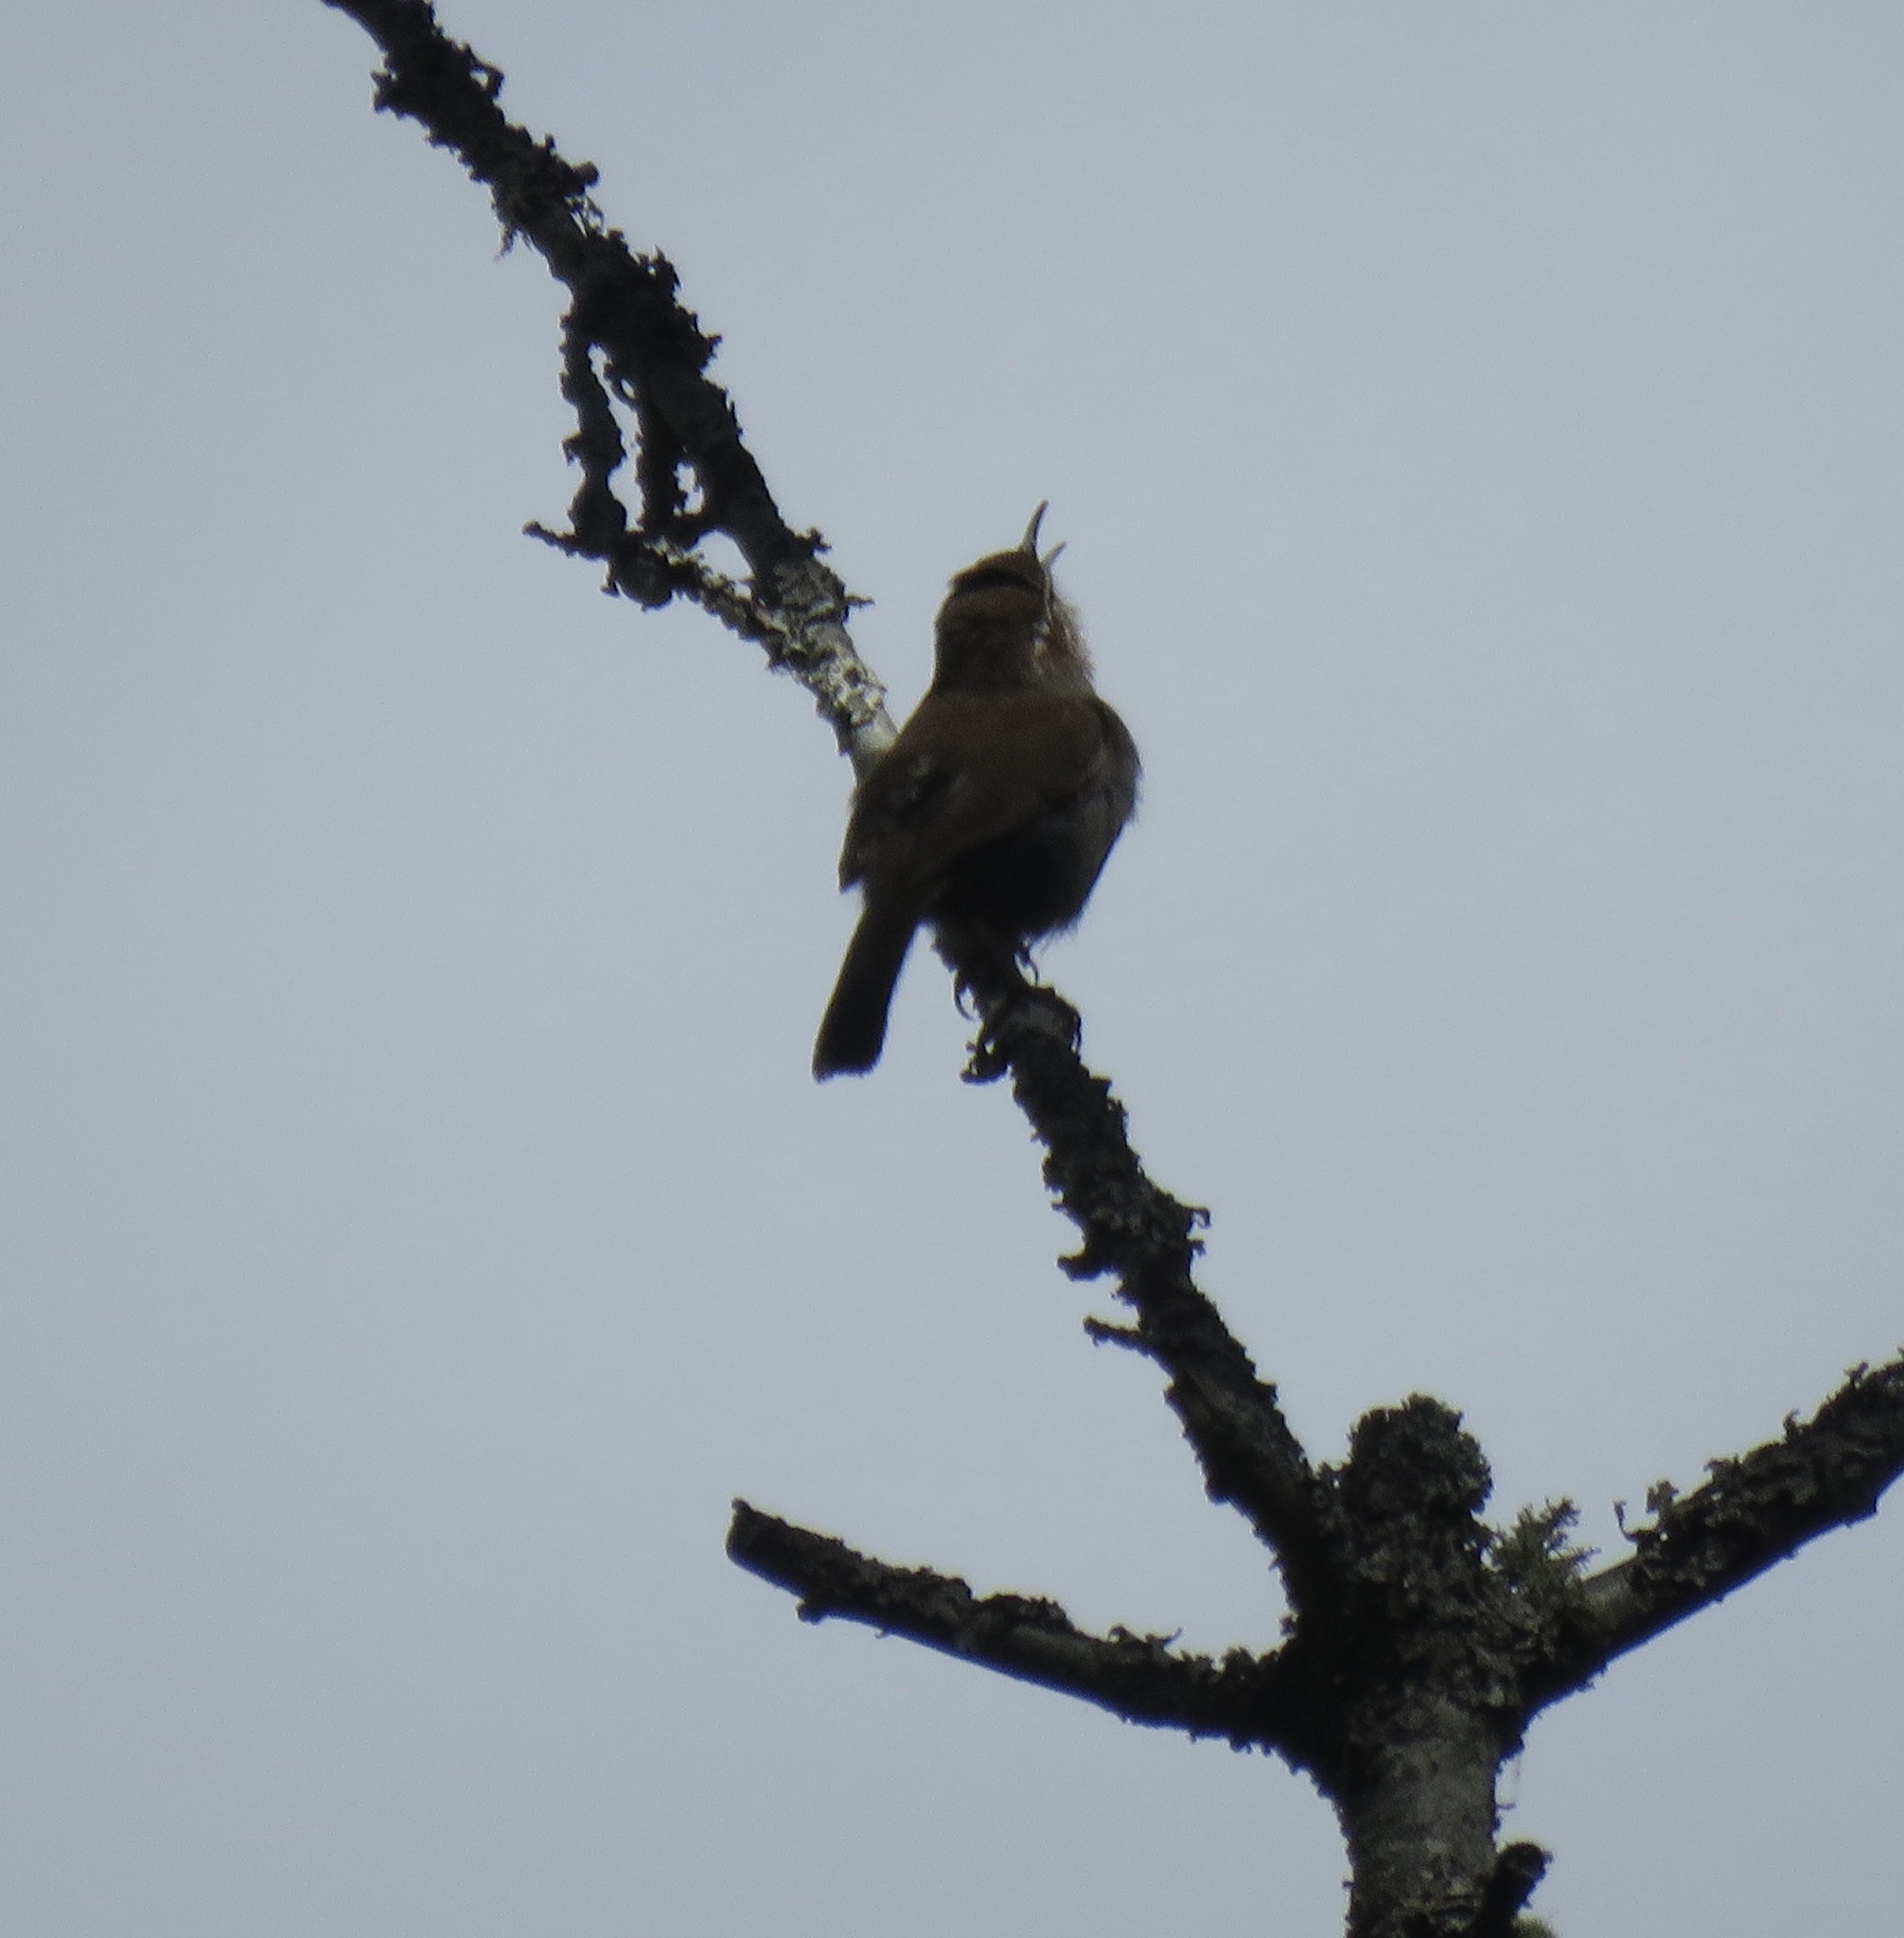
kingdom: Animalia
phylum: Chordata
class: Aves
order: Passeriformes
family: Troglodytidae
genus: Thryomanes
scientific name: Thryomanes bewickii
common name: Bewick's wren
